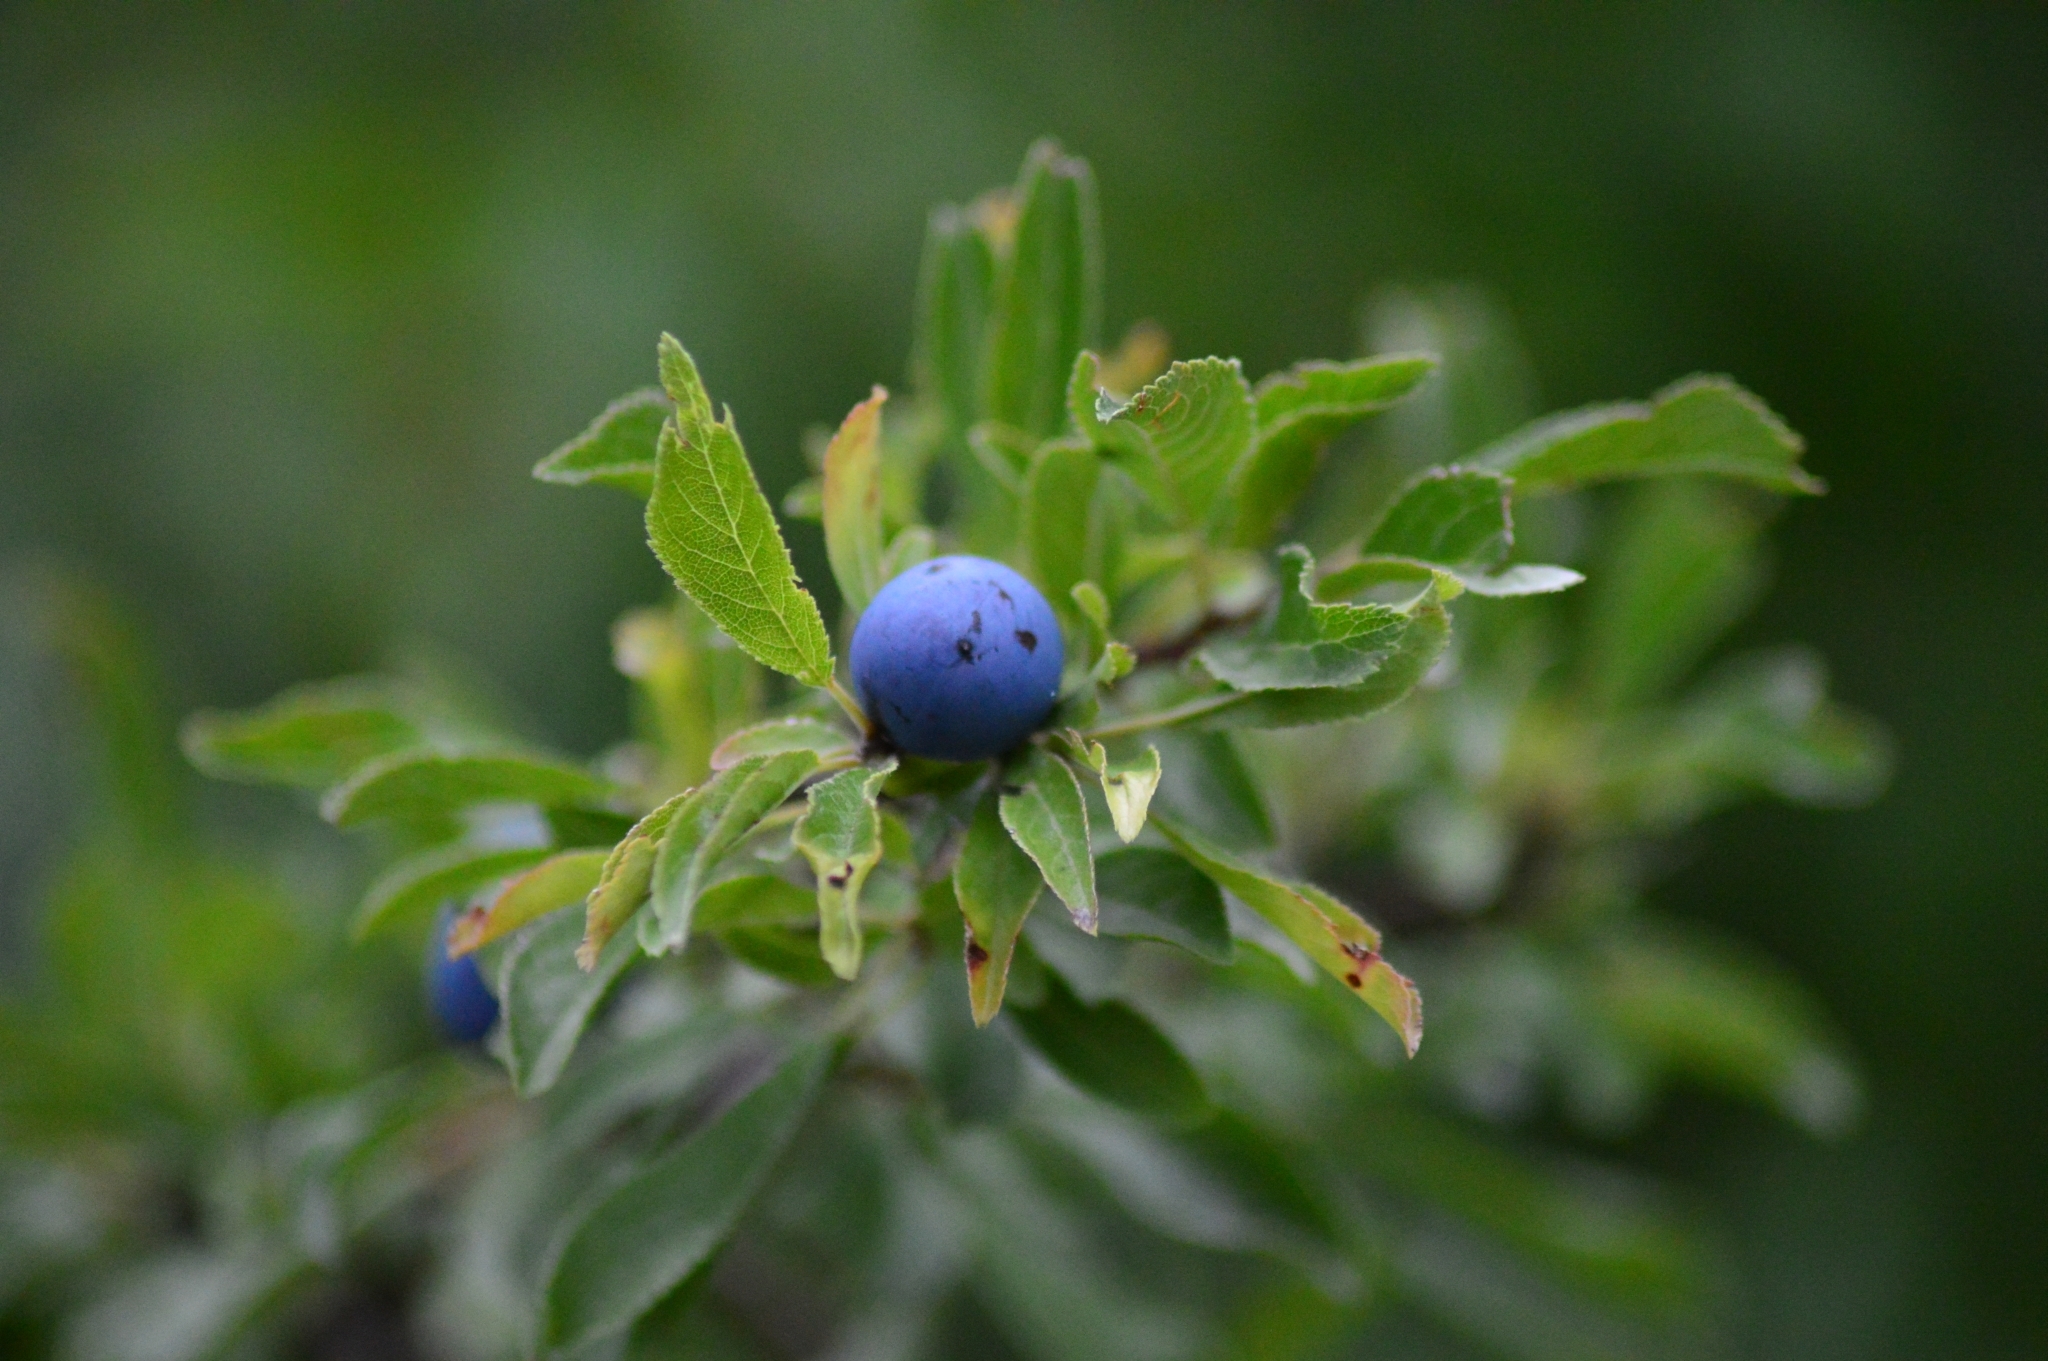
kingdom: Plantae
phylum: Tracheophyta
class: Magnoliopsida
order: Rosales
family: Rosaceae
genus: Prunus
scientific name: Prunus spinosa
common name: Blackthorn
